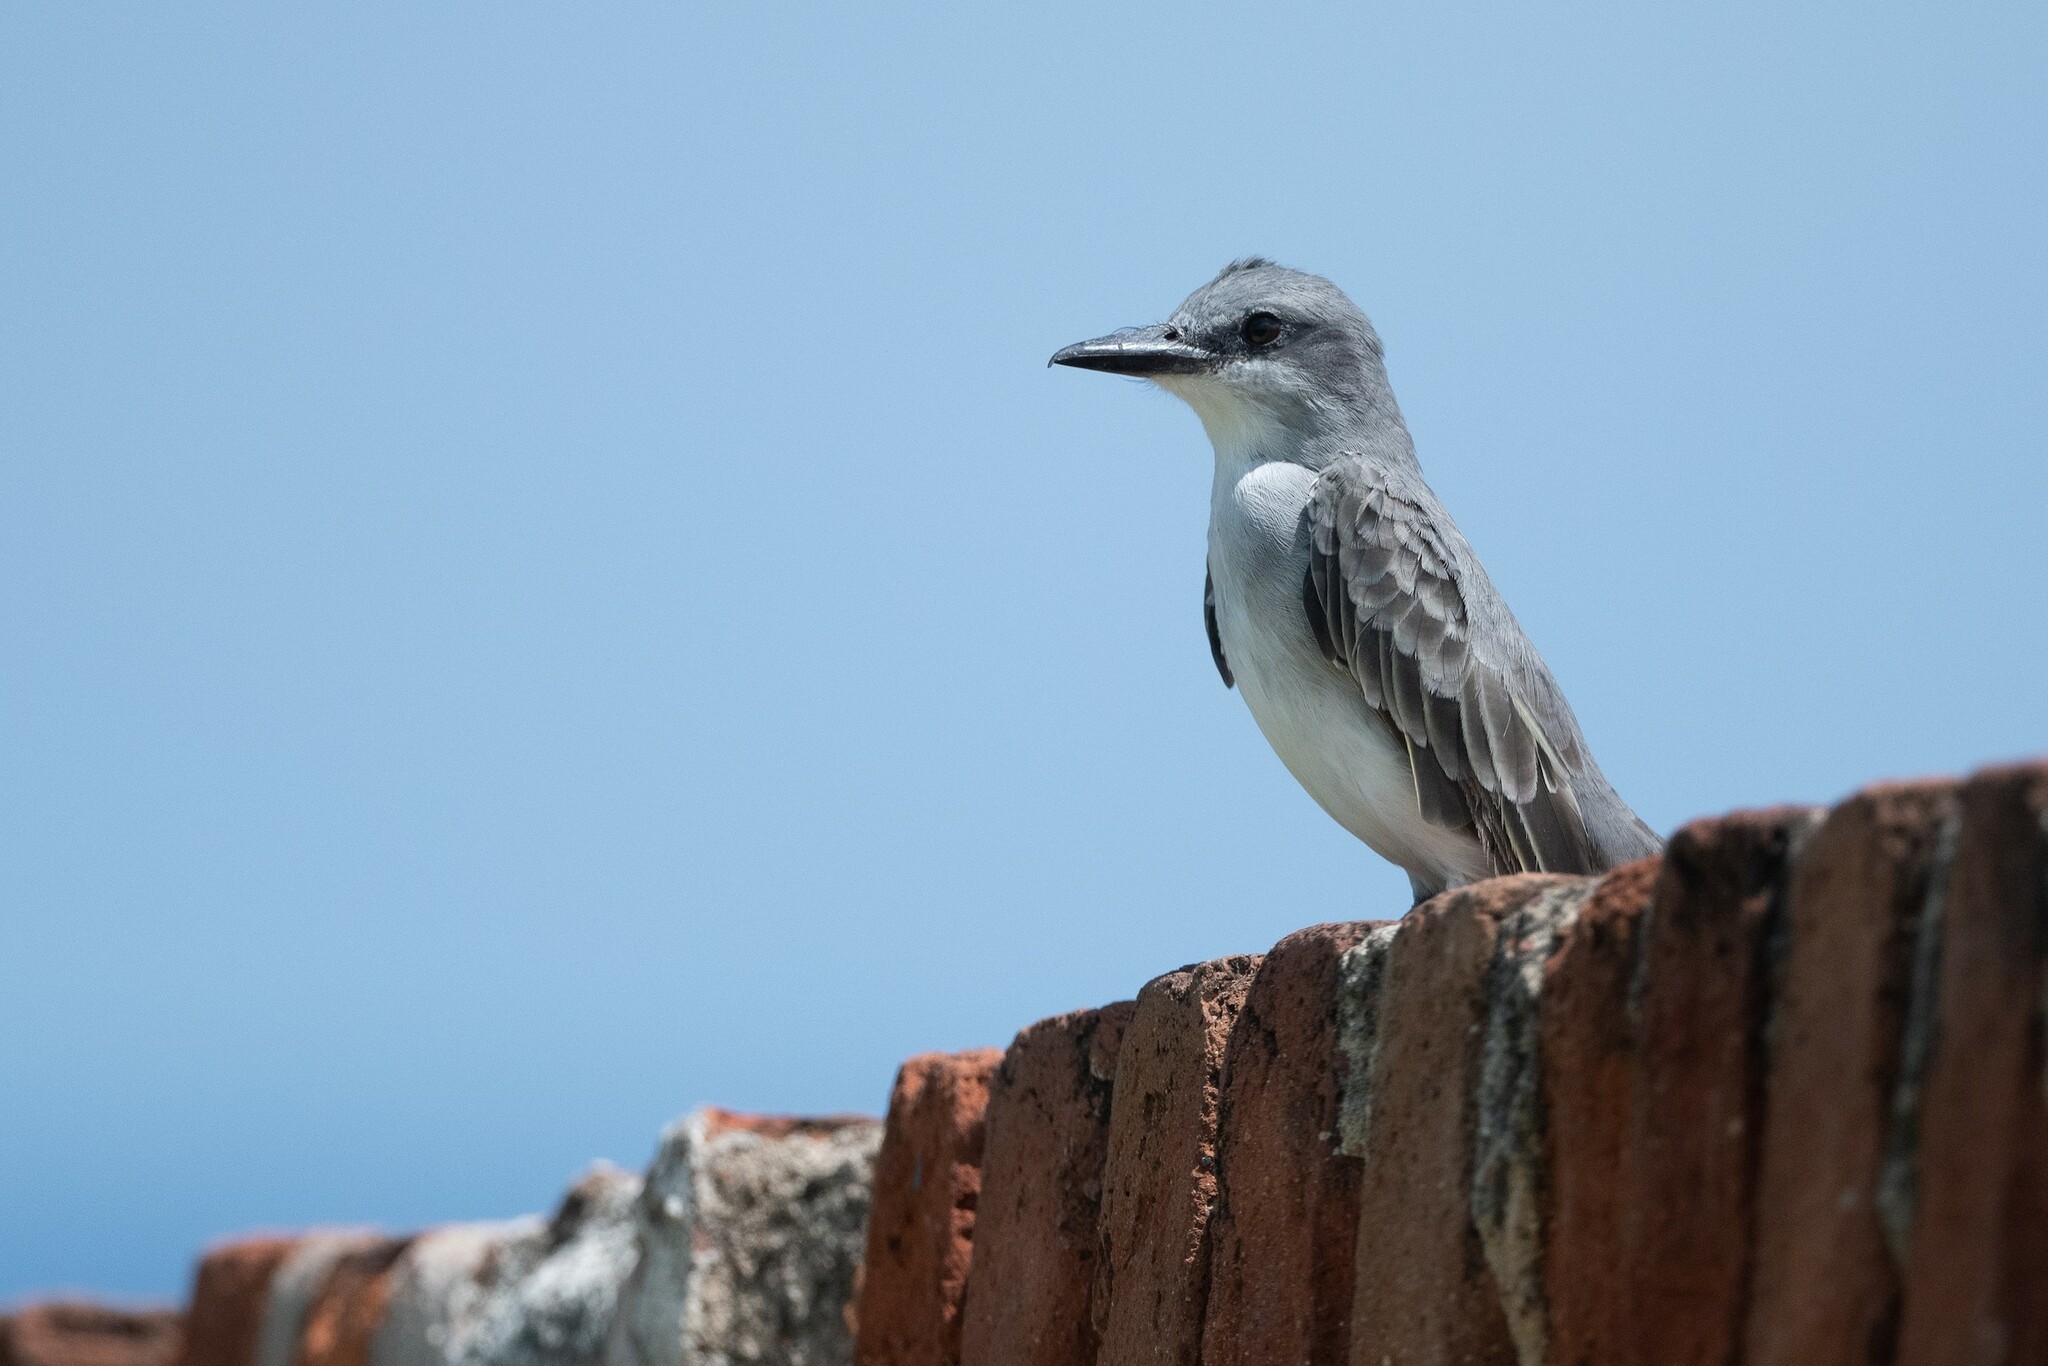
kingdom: Animalia
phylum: Chordata
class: Aves
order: Passeriformes
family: Tyrannidae
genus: Tyrannus
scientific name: Tyrannus dominicensis
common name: Gray kingbird
